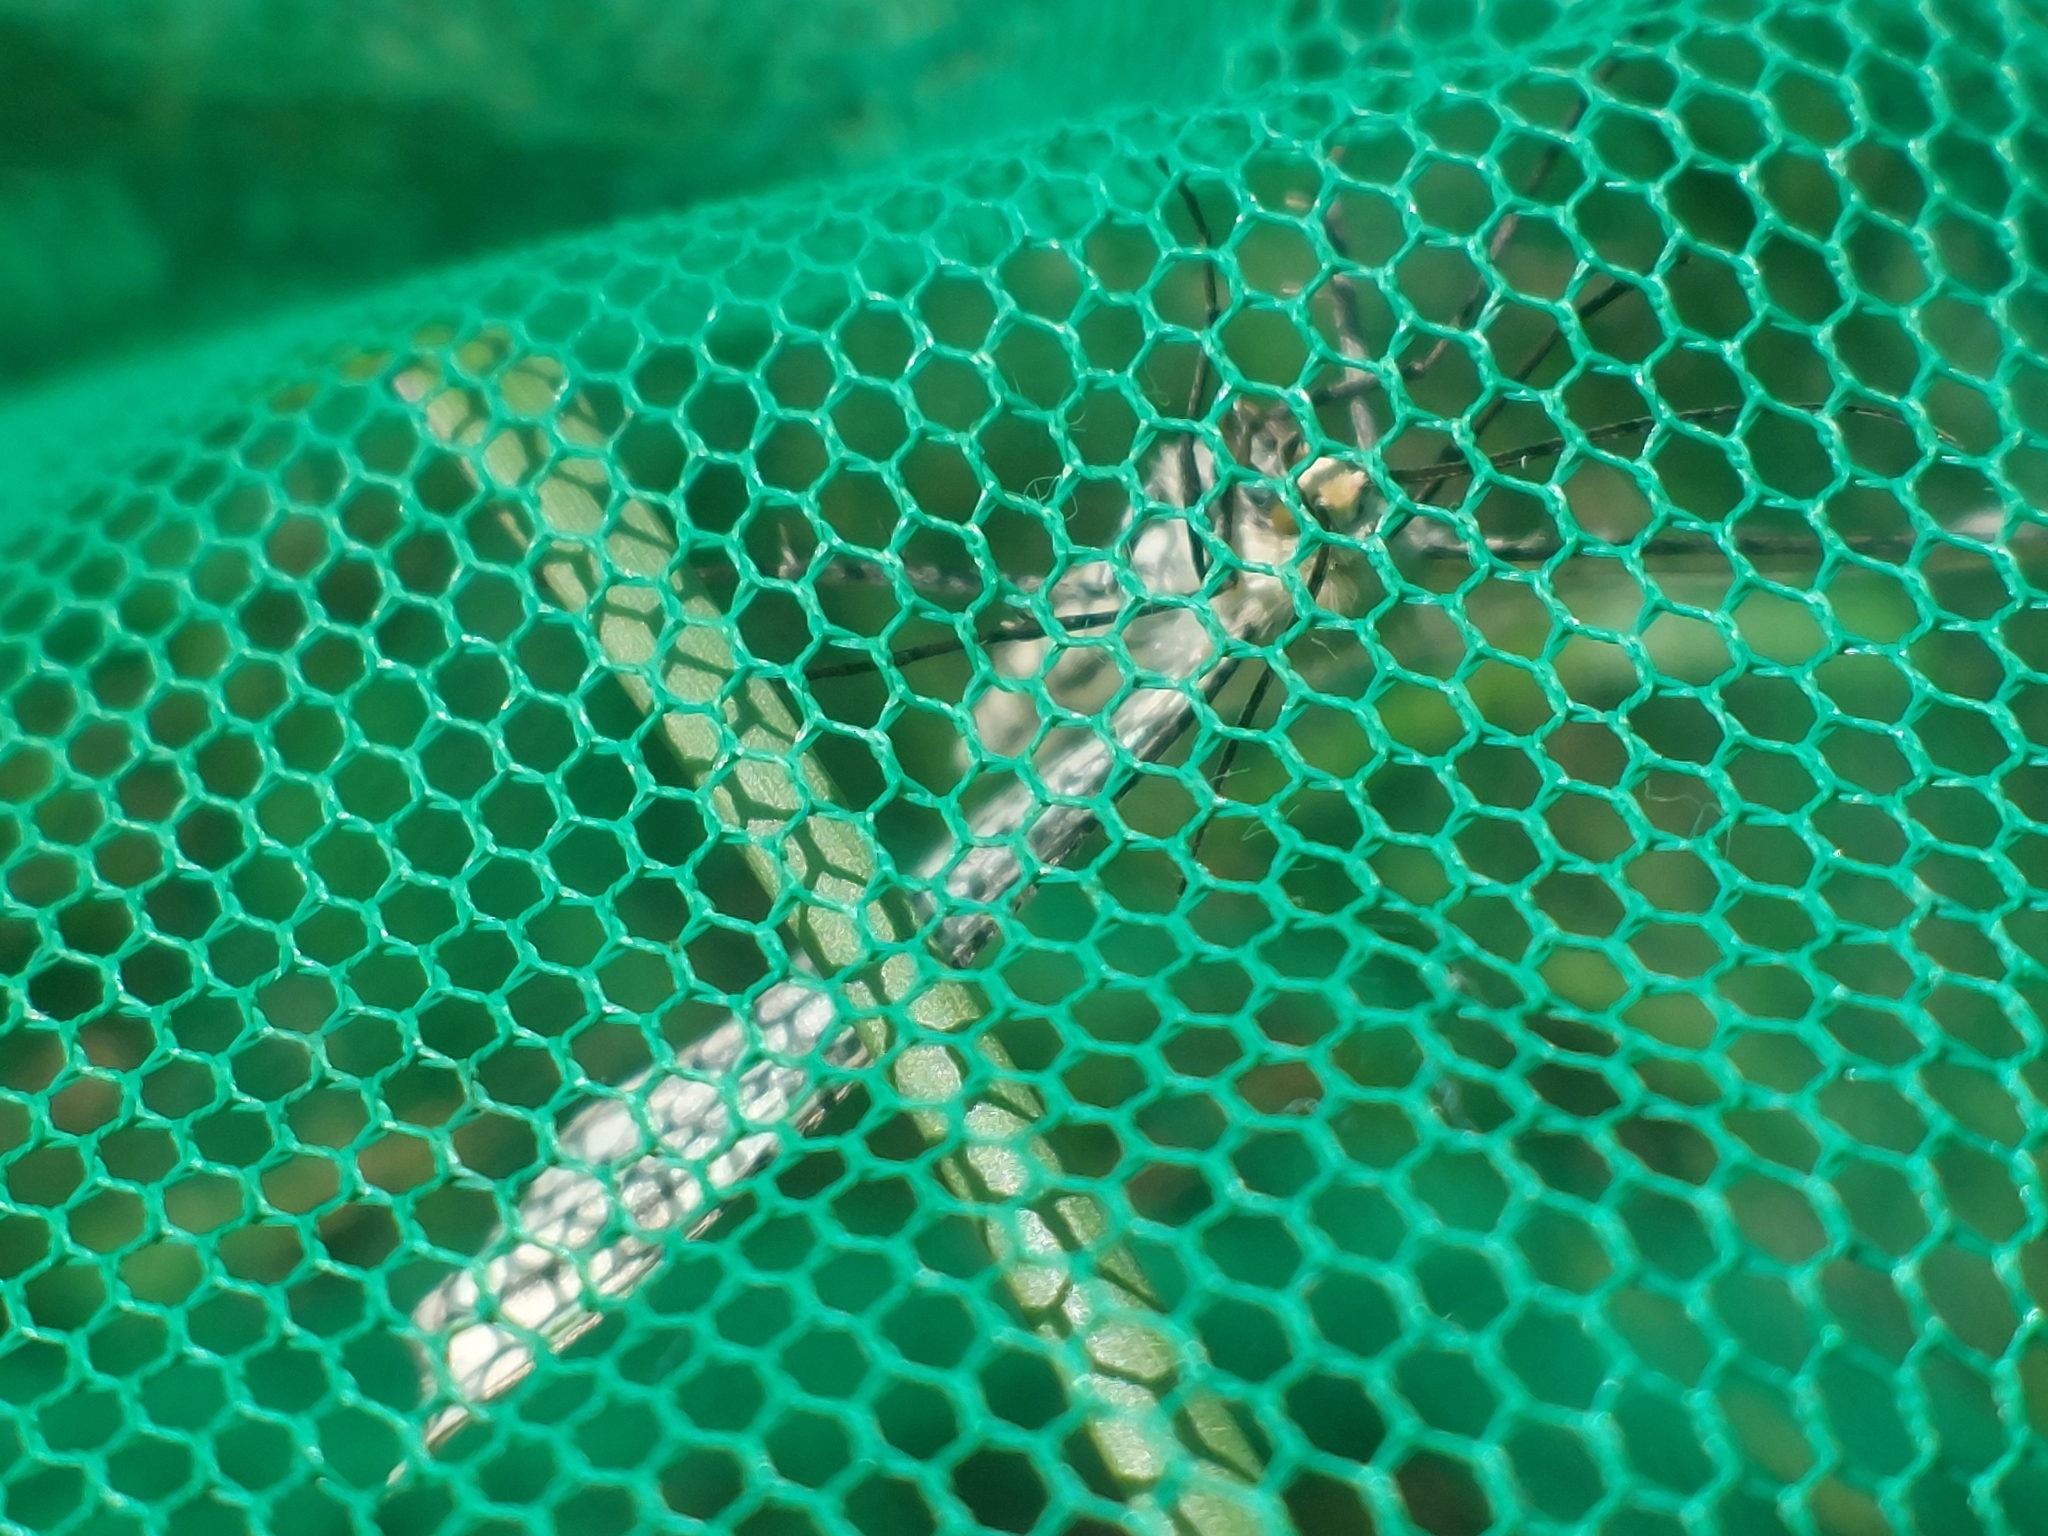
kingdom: Animalia
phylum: Arthropoda
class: Insecta
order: Lepidoptera
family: Geometridae
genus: Siona
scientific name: Siona lineata
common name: Black-veined moth
